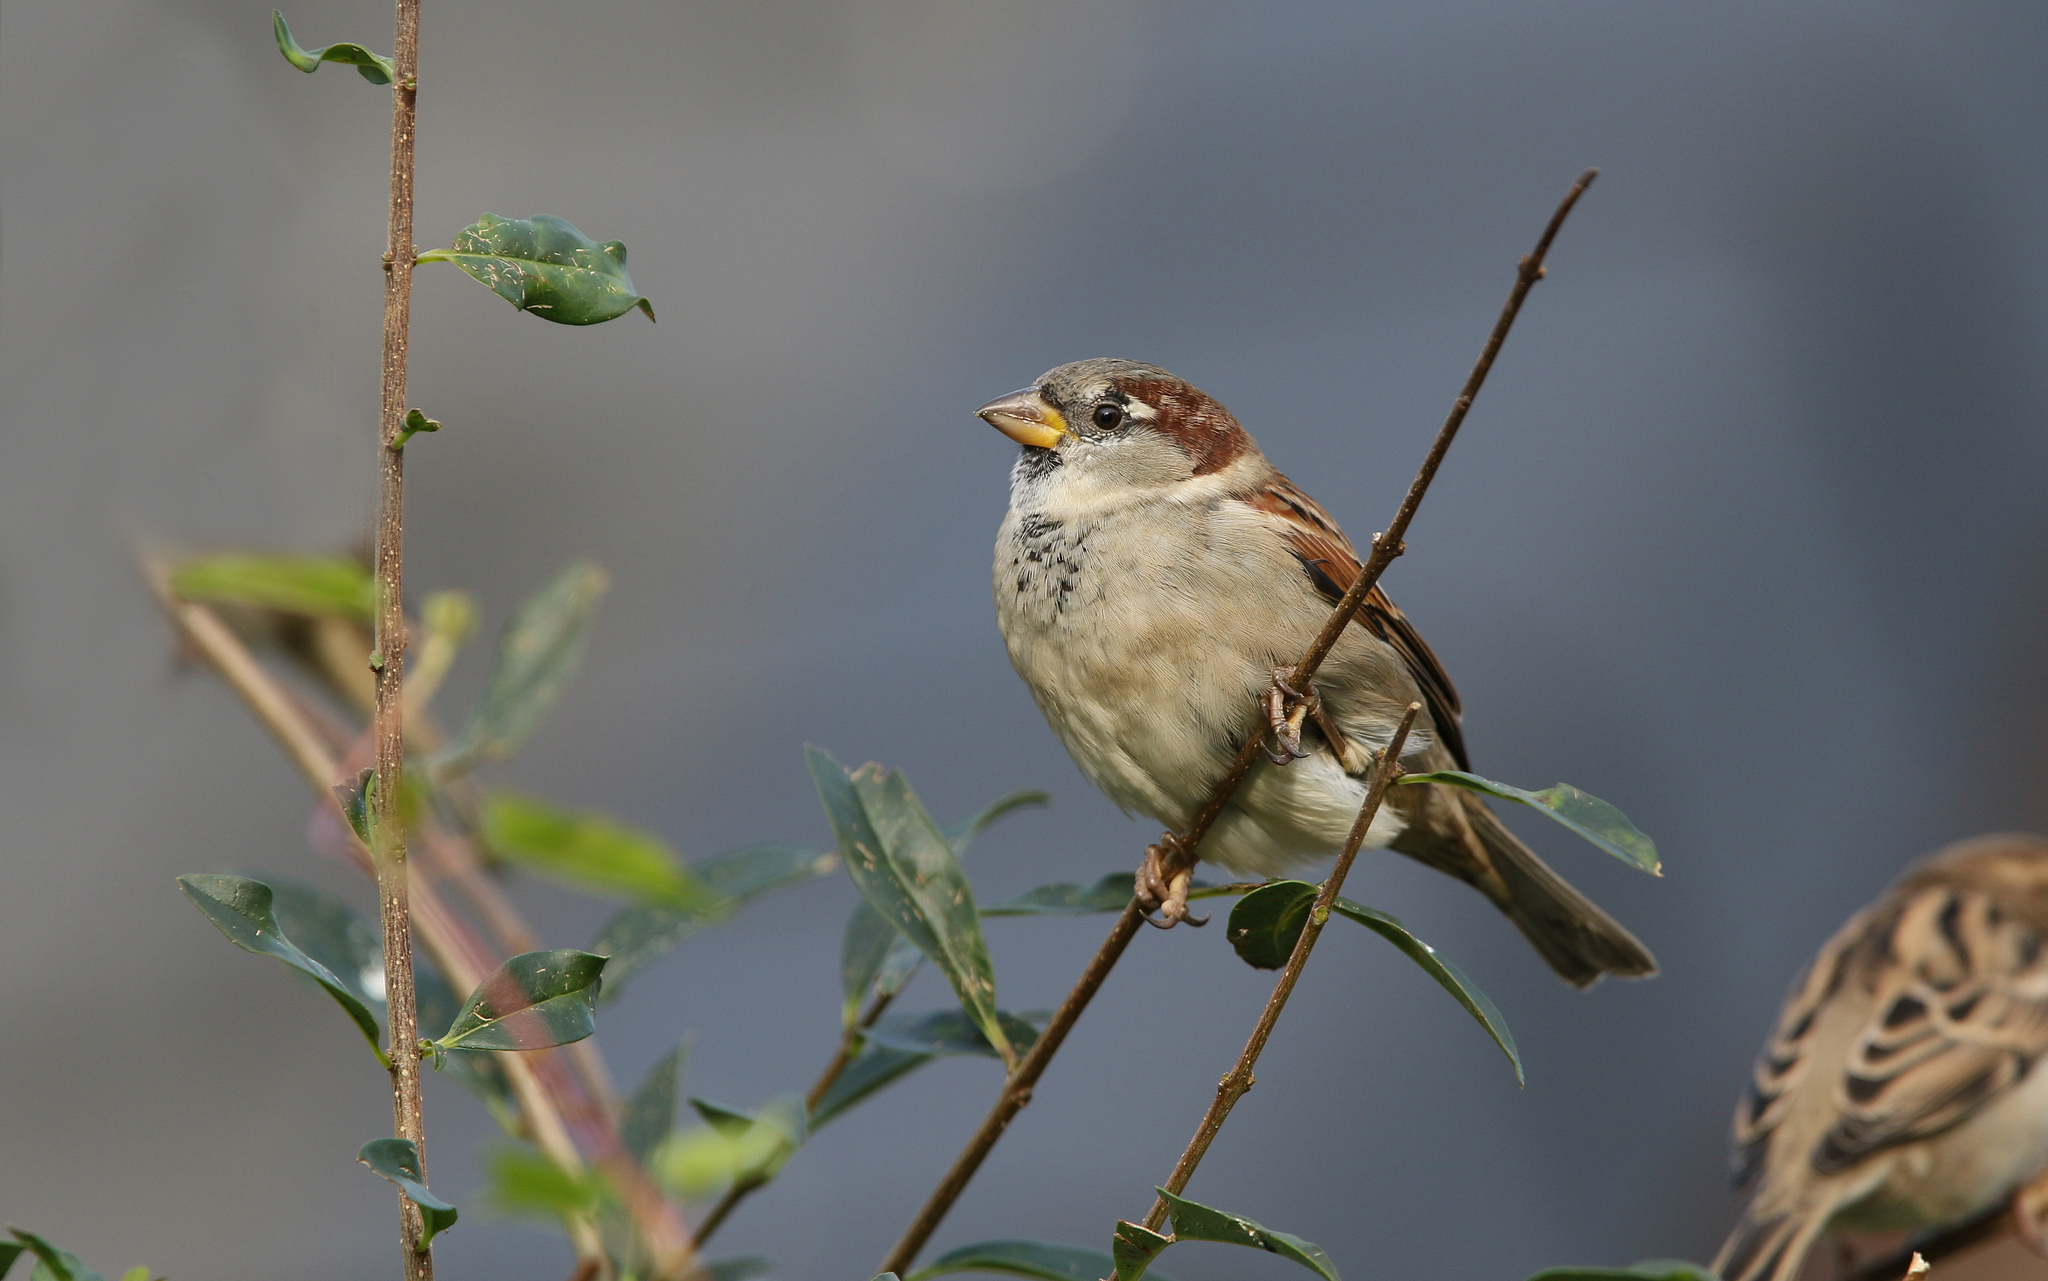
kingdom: Animalia
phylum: Chordata
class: Aves
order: Passeriformes
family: Passeridae
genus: Passer
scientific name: Passer domesticus
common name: House sparrow
